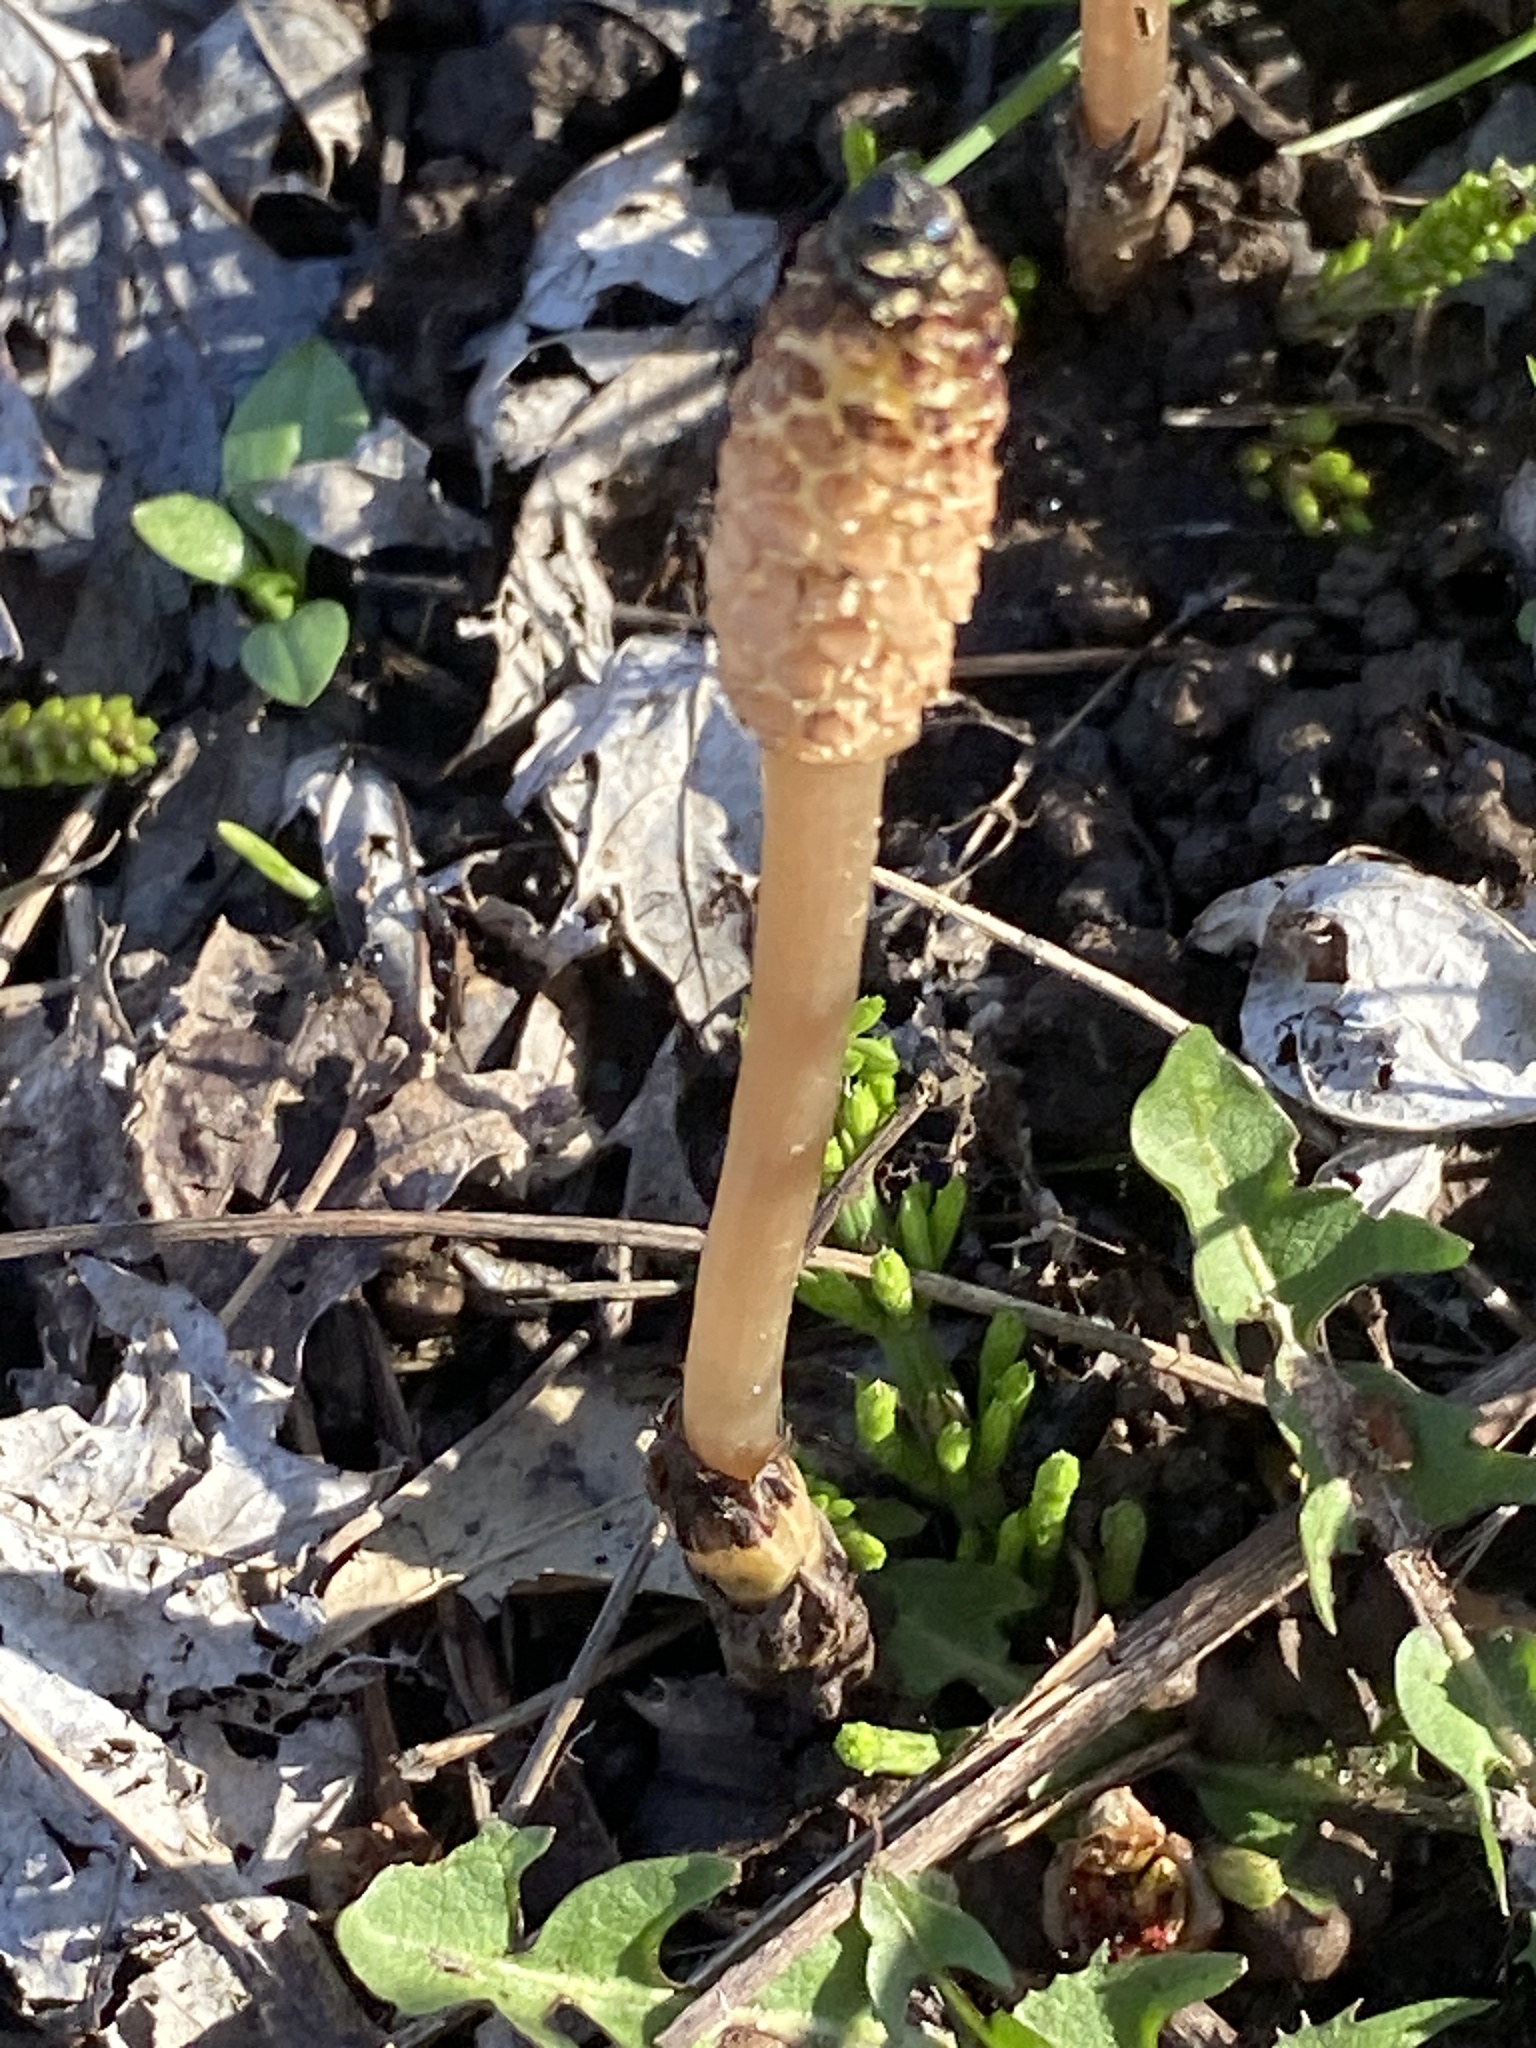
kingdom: Plantae
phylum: Tracheophyta
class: Polypodiopsida
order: Equisetales
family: Equisetaceae
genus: Equisetum
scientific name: Equisetum arvense
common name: Field horsetail
